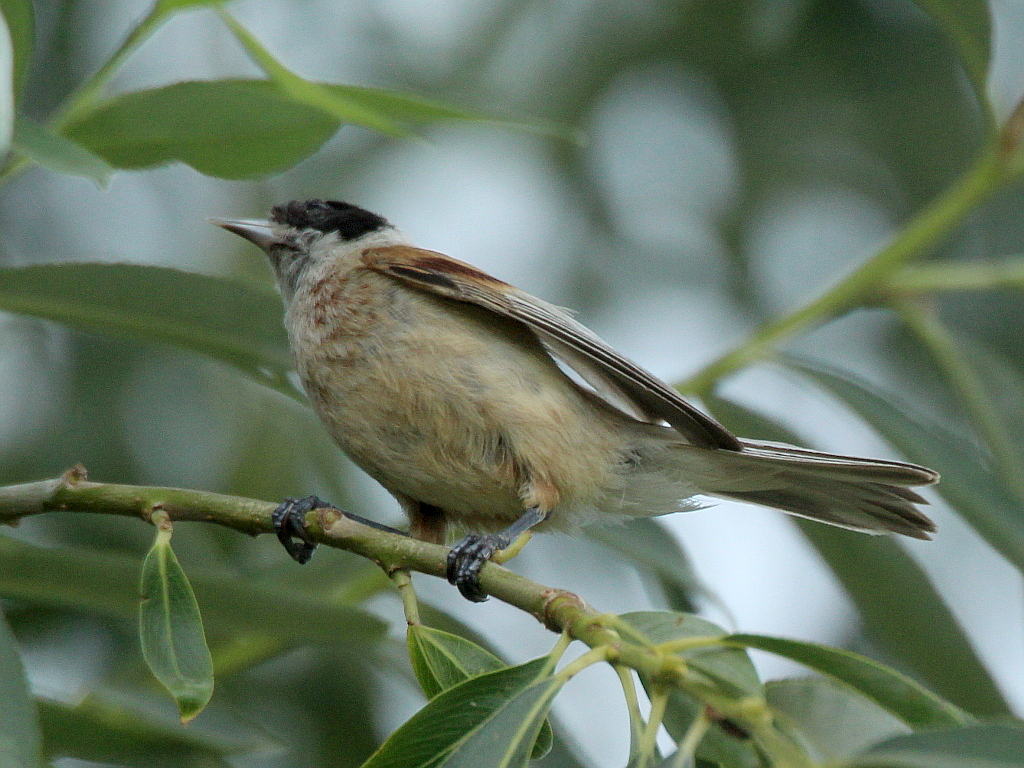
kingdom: Animalia
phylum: Chordata
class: Aves
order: Passeriformes
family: Remizidae
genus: Remiz
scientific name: Remiz pendulinus
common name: Eurasian penduline tit
